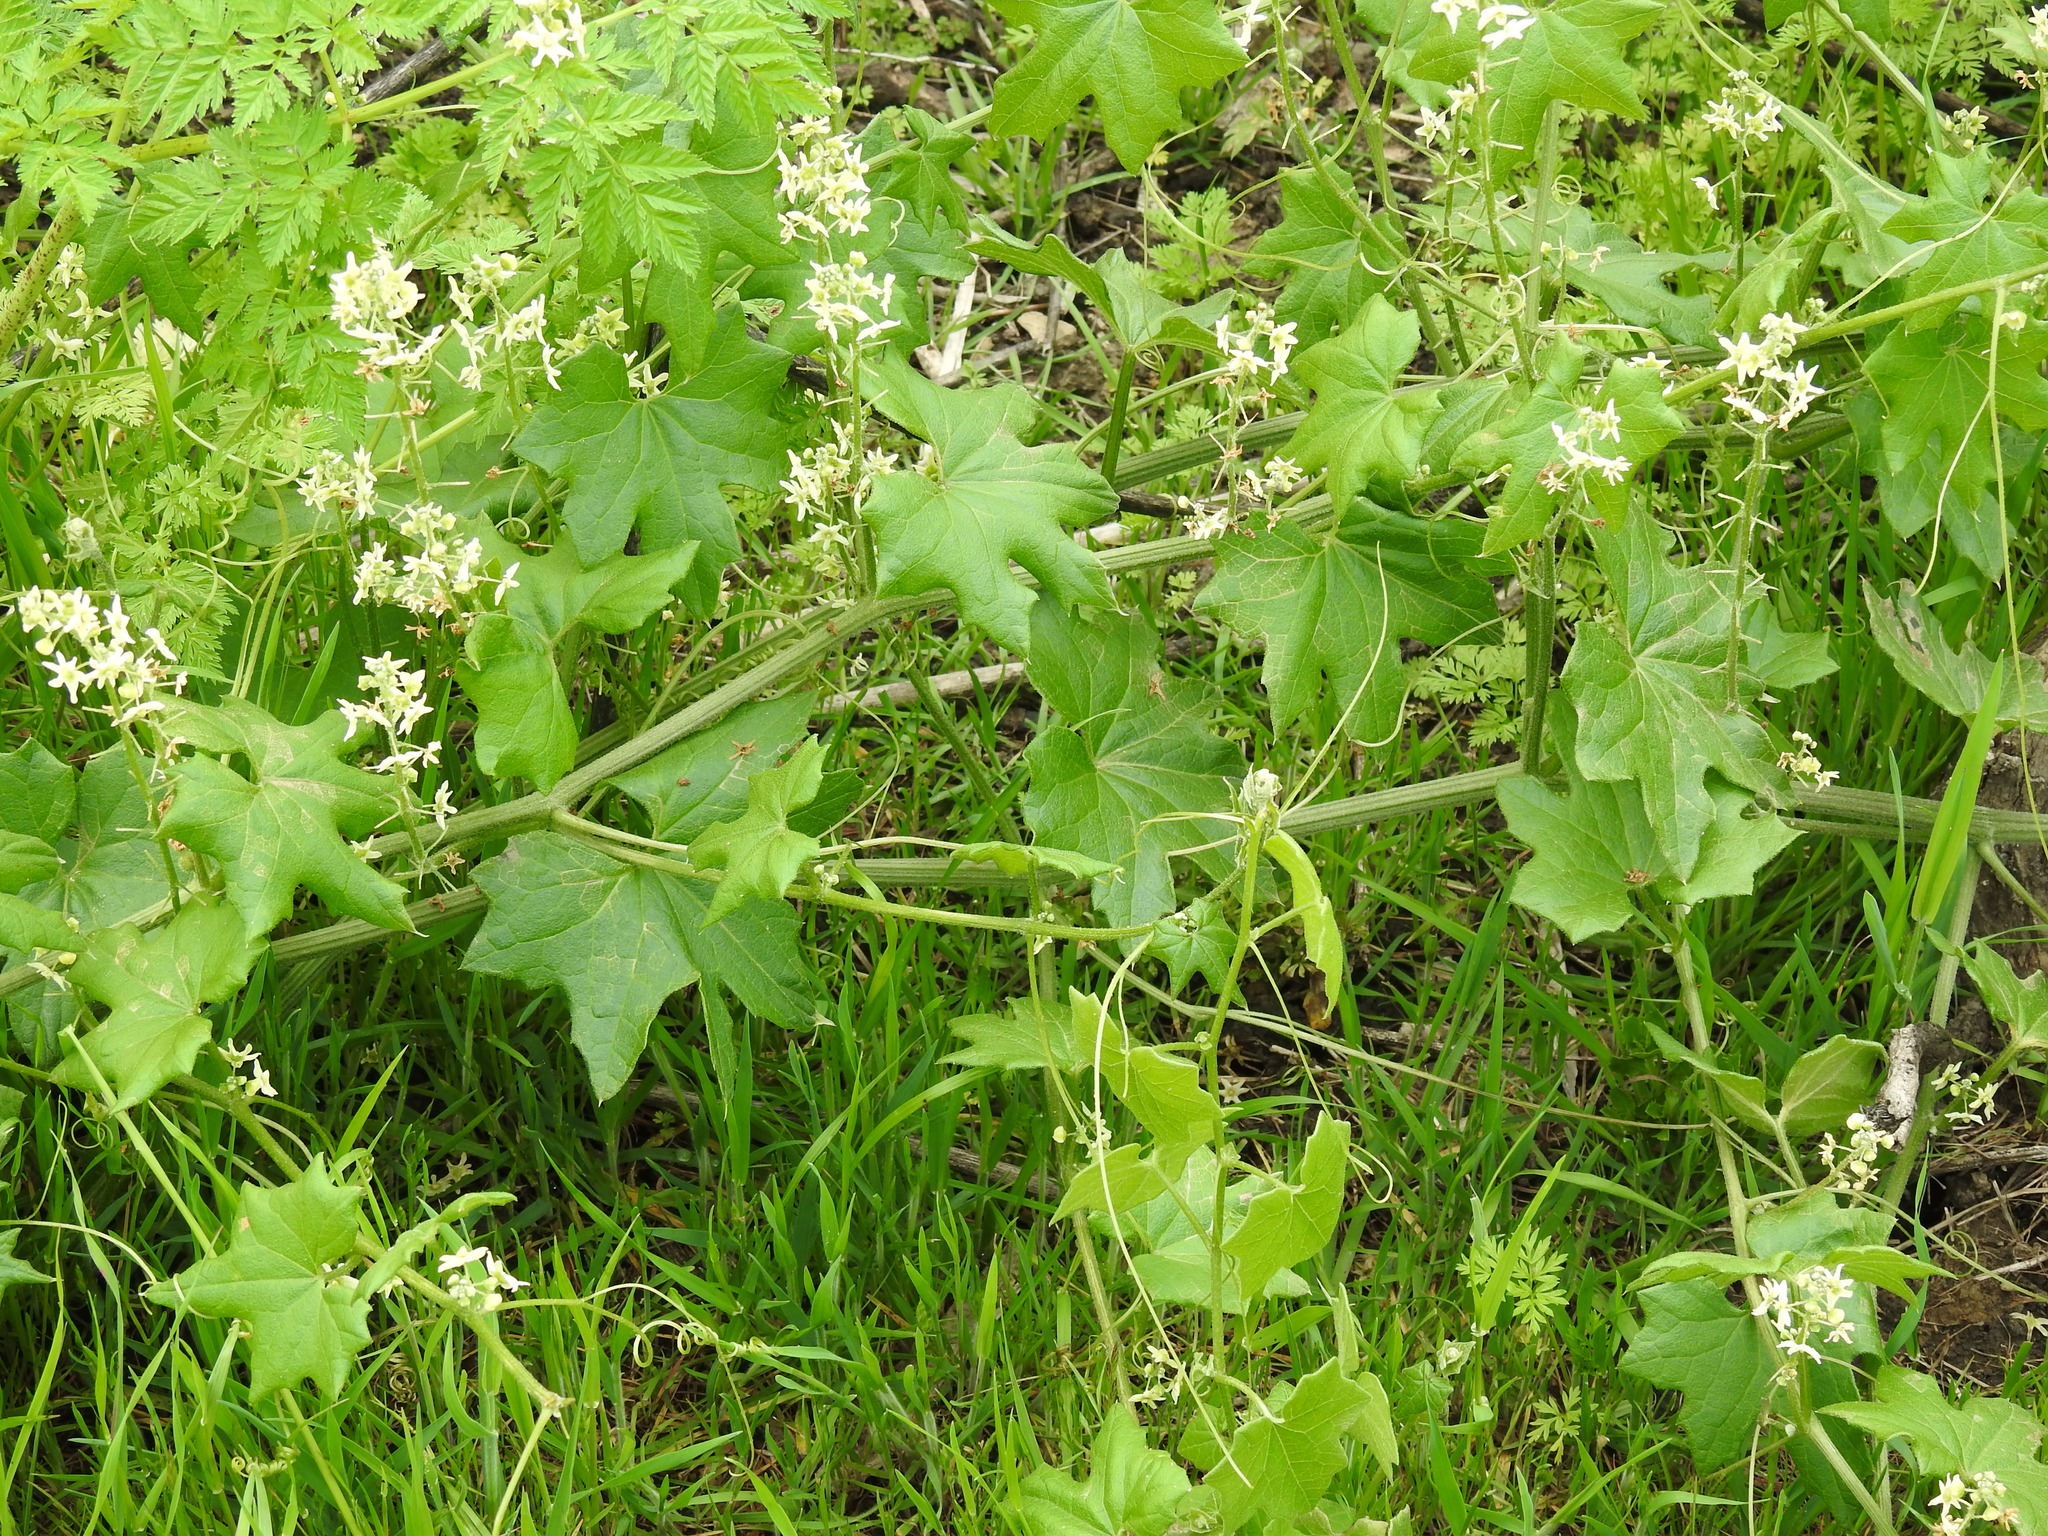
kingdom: Plantae
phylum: Tracheophyta
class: Magnoliopsida
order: Cucurbitales
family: Cucurbitaceae
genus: Marah
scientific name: Marah fabacea
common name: California manroot
